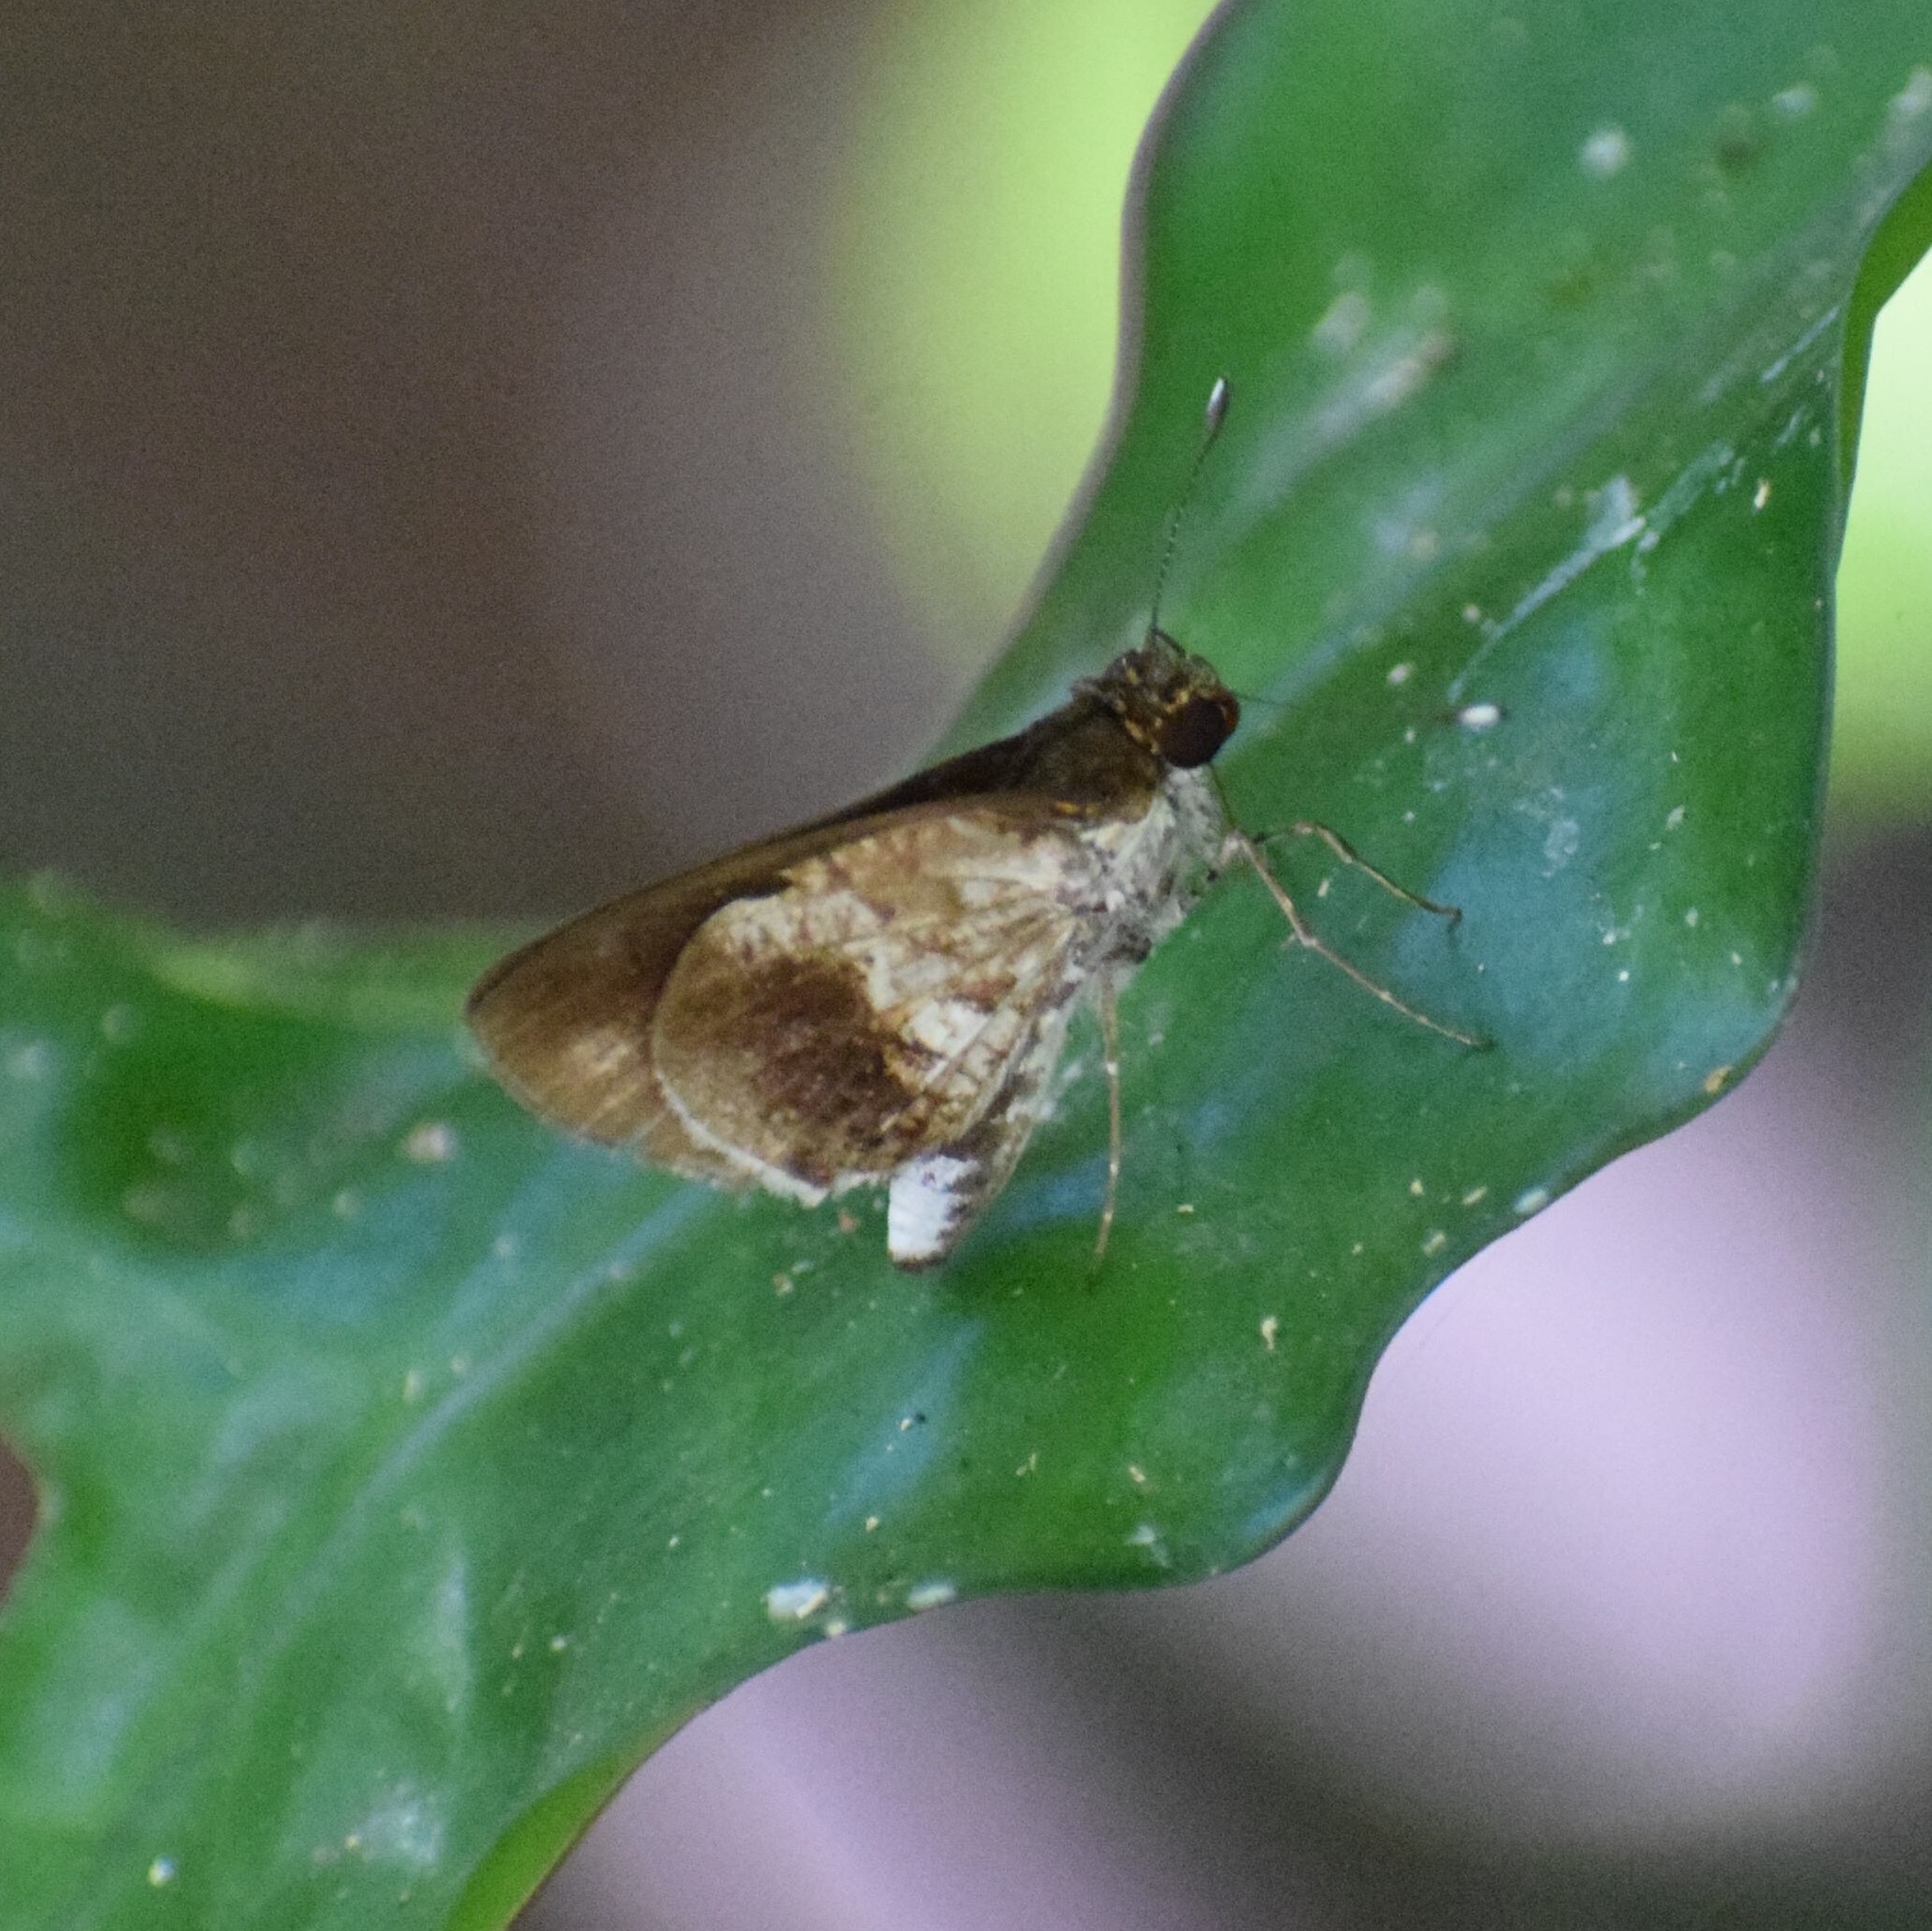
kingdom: Animalia
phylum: Arthropoda
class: Insecta
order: Lepidoptera
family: Hesperiidae
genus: Acleros
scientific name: Acleros mackenii
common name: Shade dart
